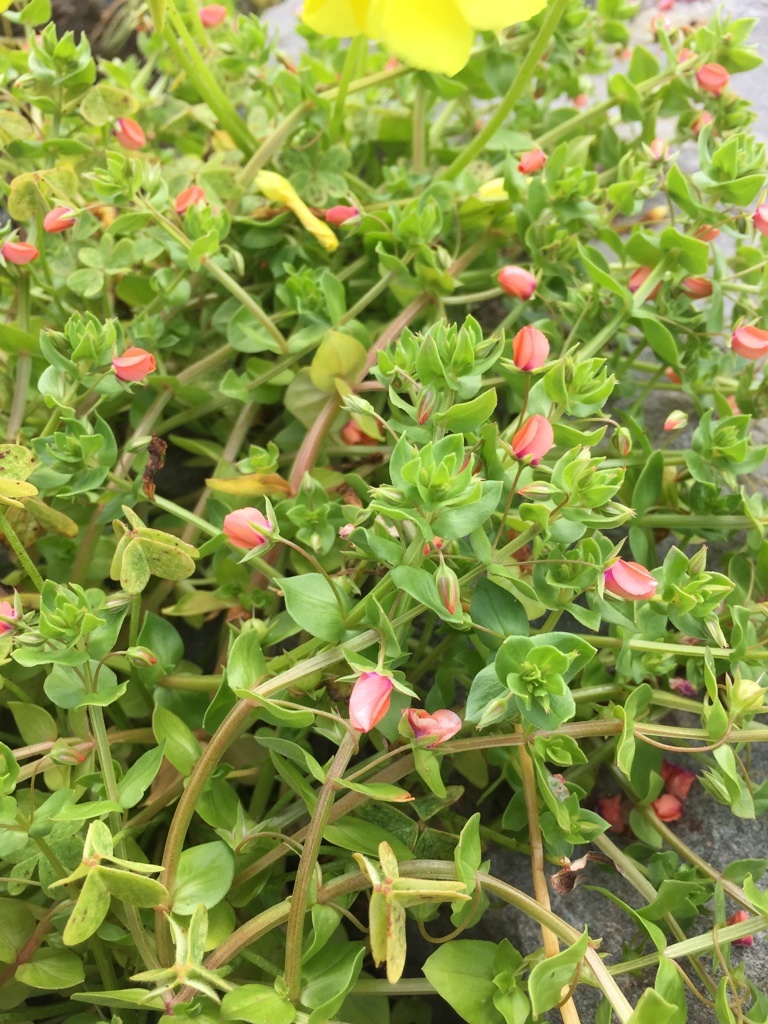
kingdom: Plantae
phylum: Tracheophyta
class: Magnoliopsida
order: Ericales
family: Primulaceae
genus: Lysimachia
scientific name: Lysimachia arvensis
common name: Scarlet pimpernel
